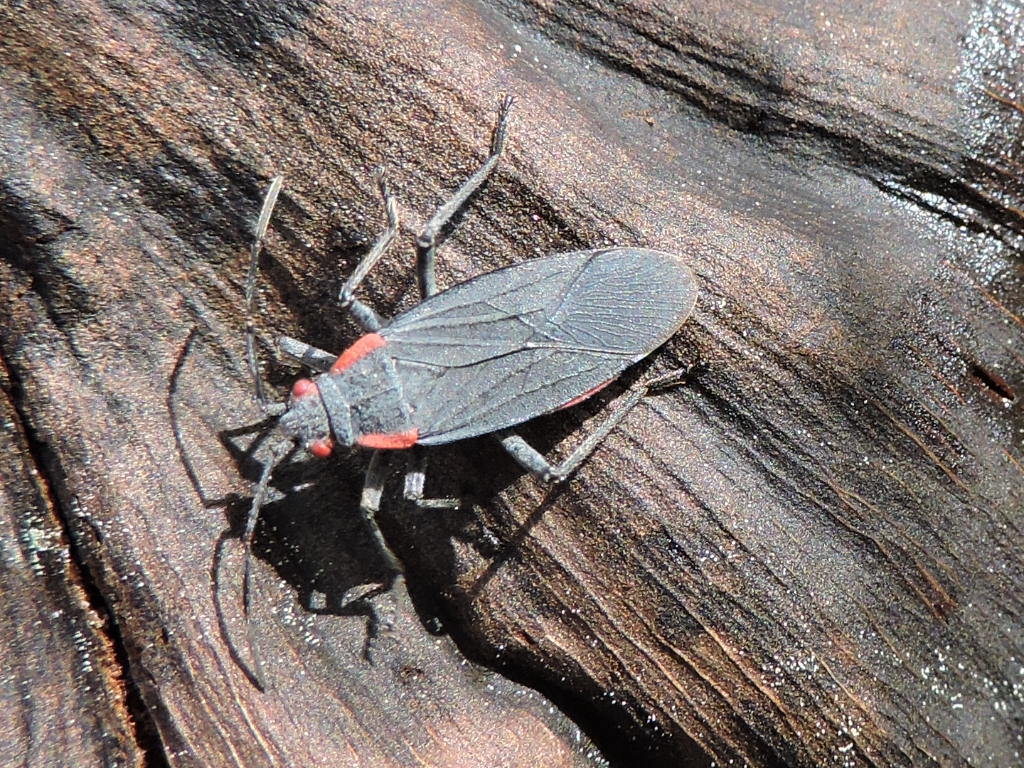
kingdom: Animalia
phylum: Arthropoda
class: Insecta
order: Hemiptera
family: Rhopalidae
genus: Jadera
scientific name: Jadera haematoloma
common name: Red-shouldered bug
